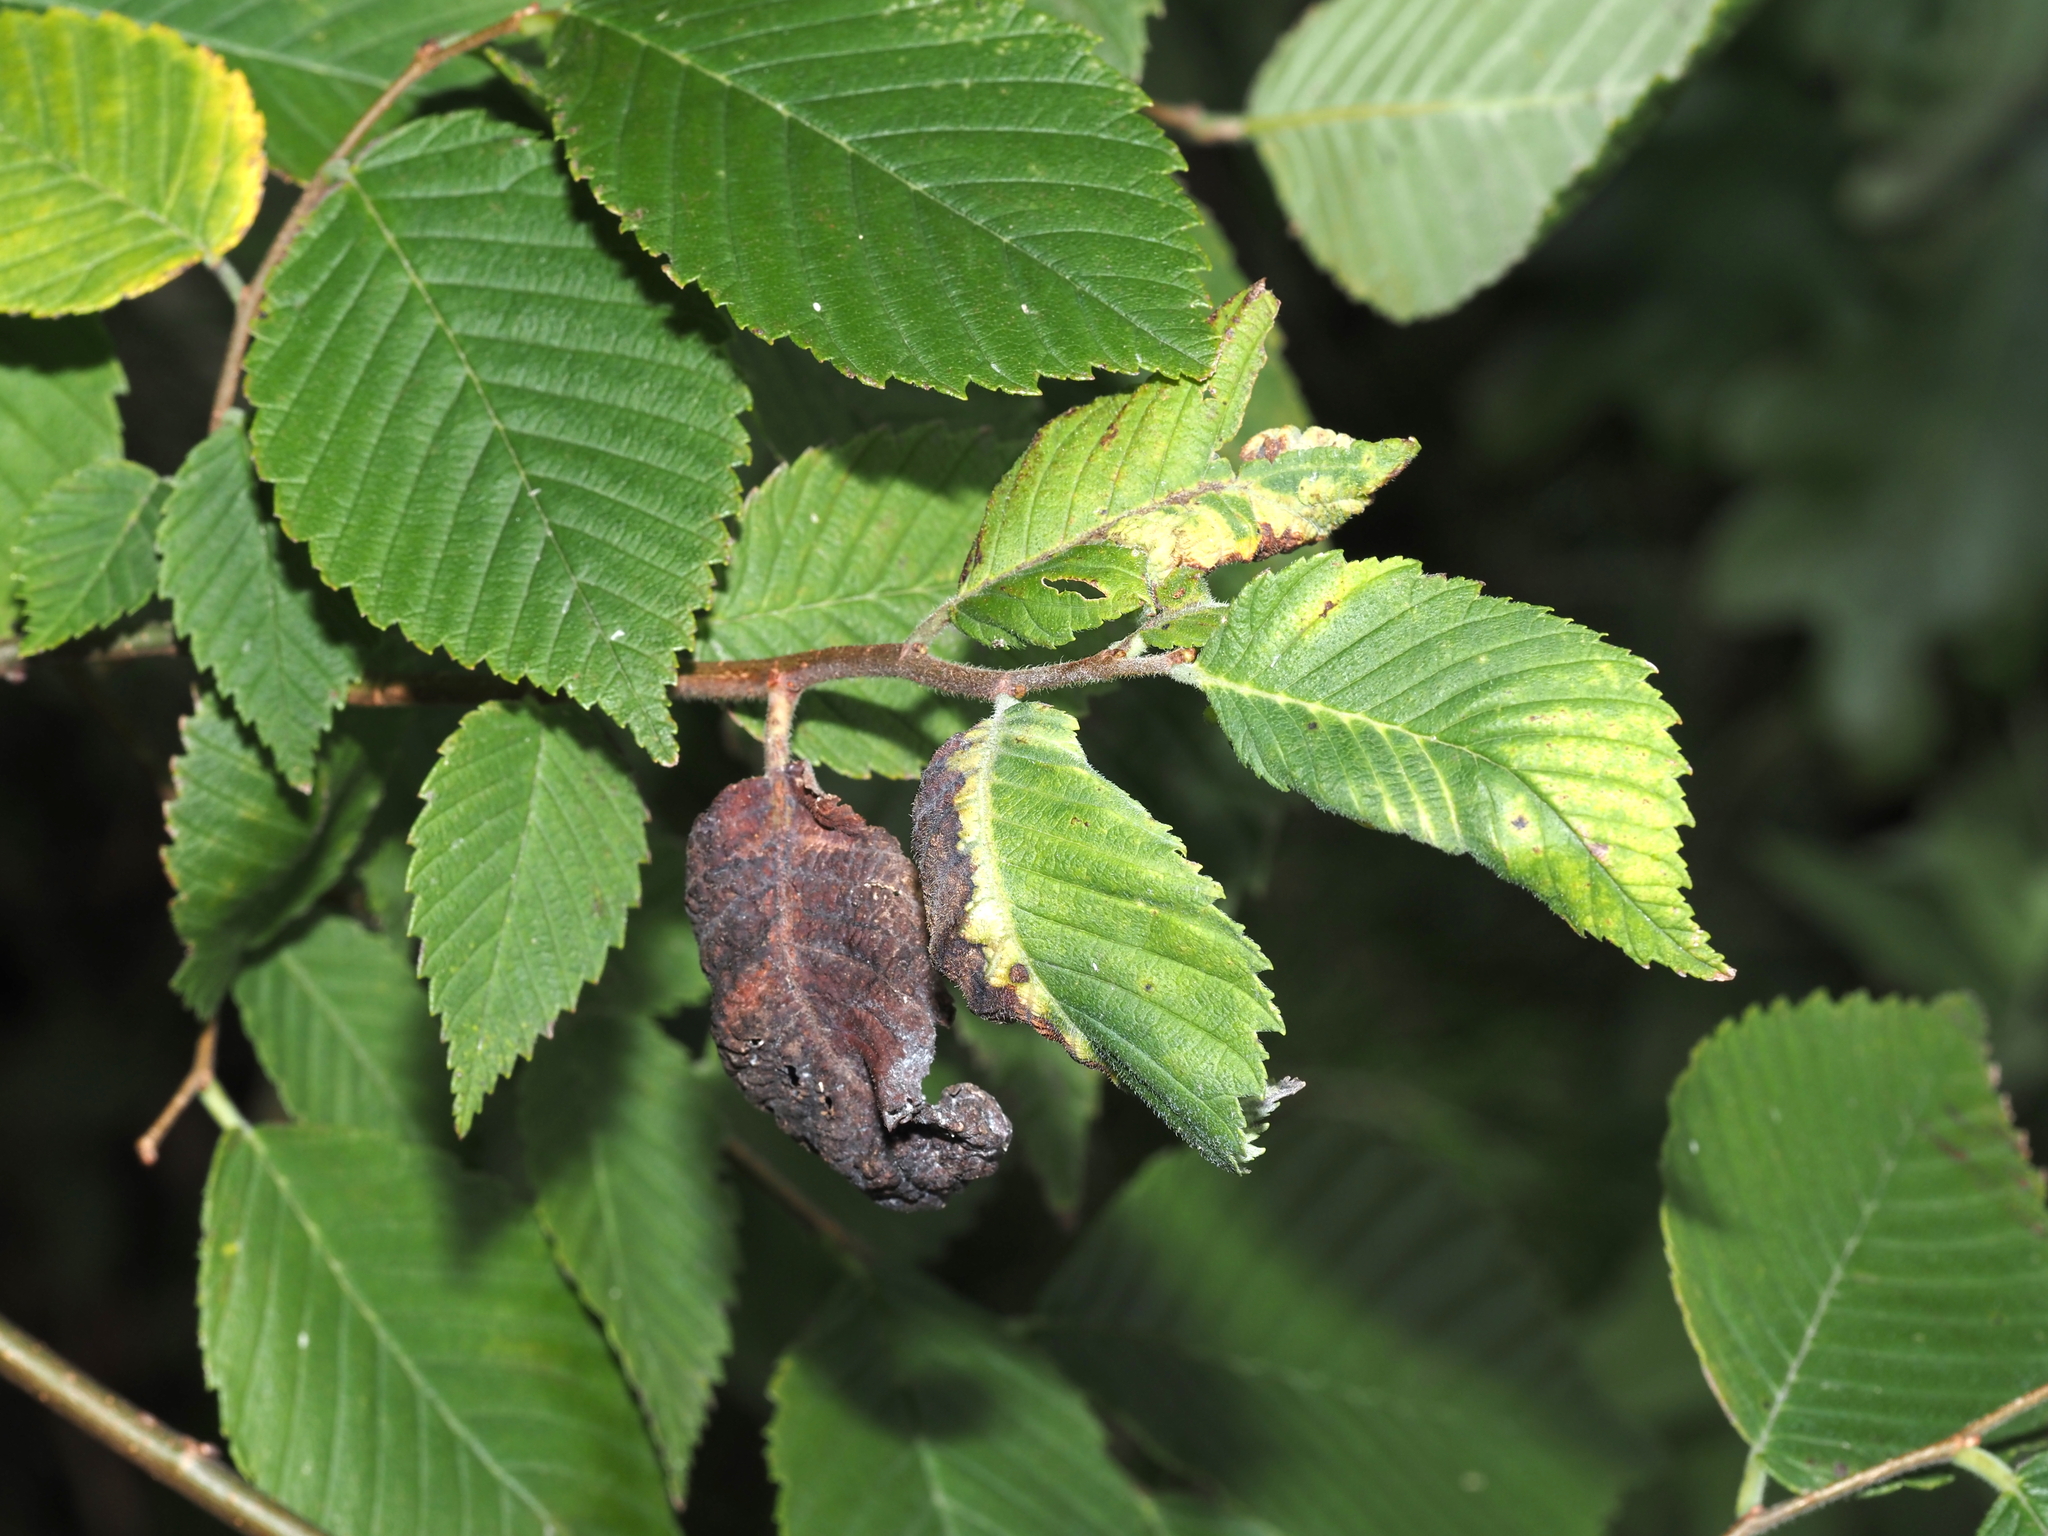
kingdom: Animalia
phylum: Arthropoda
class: Insecta
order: Hemiptera
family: Aphididae
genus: Eriosoma
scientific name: Eriosoma americanum
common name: Woolly elm aphid
